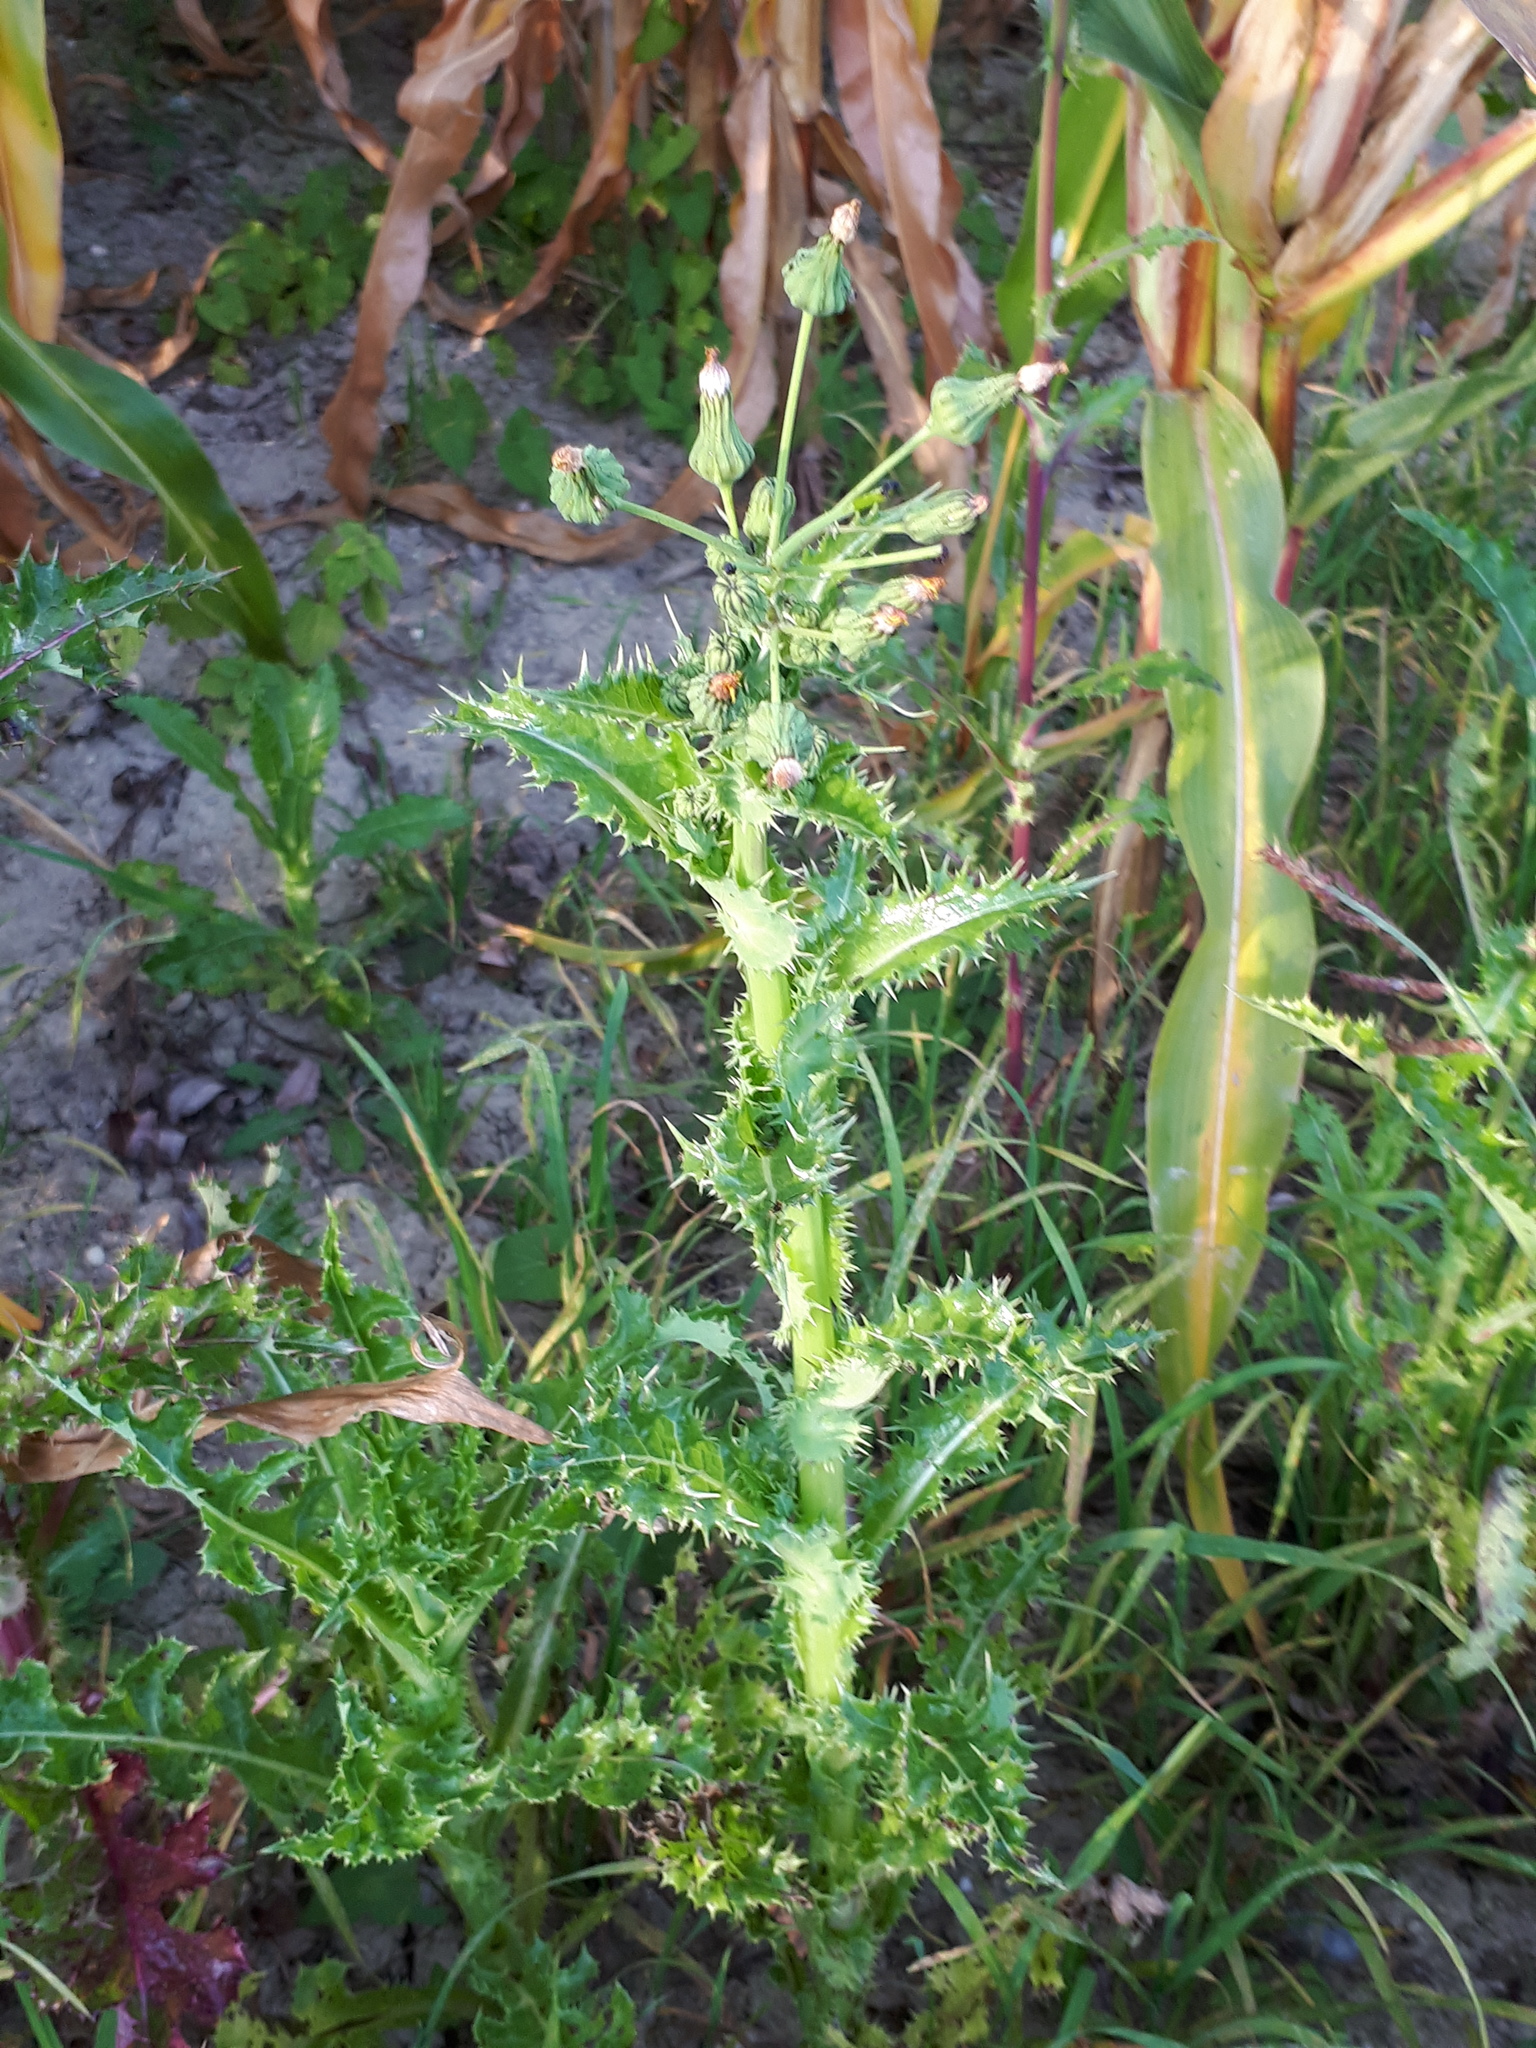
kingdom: Plantae
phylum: Tracheophyta
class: Magnoliopsida
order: Asterales
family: Asteraceae
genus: Sonchus
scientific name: Sonchus asper
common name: Prickly sow-thistle
